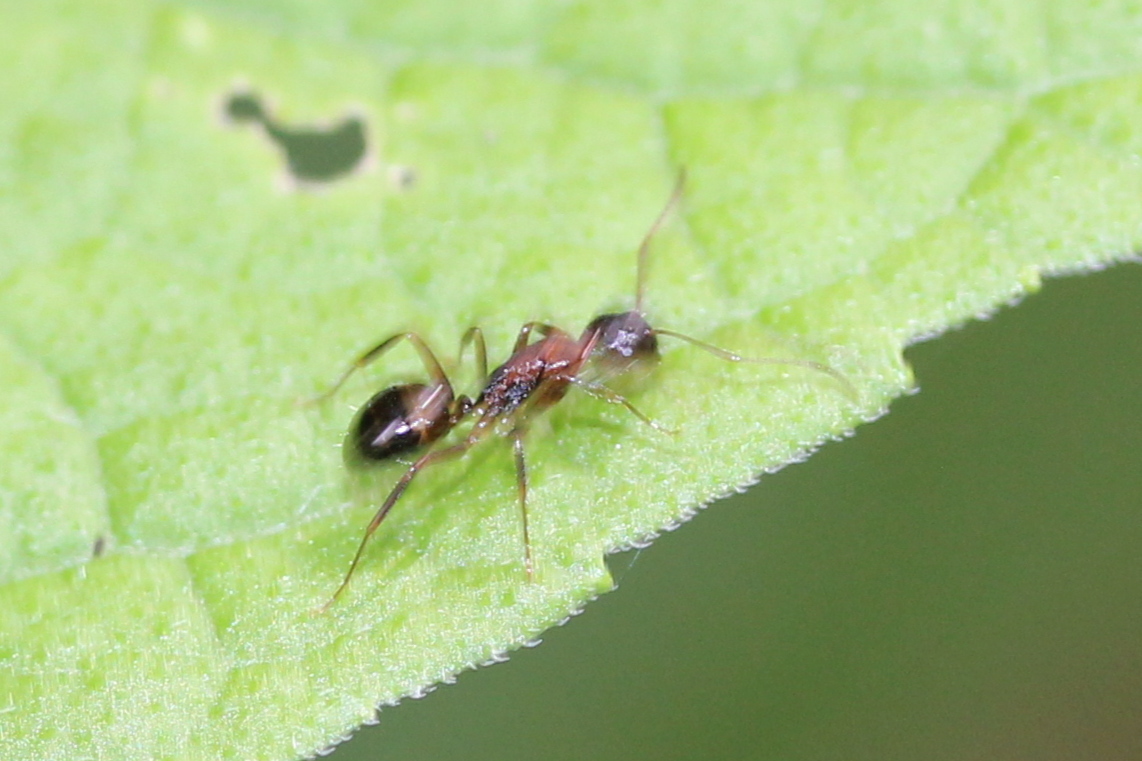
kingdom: Animalia
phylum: Arthropoda
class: Insecta
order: Hymenoptera
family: Formicidae
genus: Camponotus
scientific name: Camponotus subbarbatus
